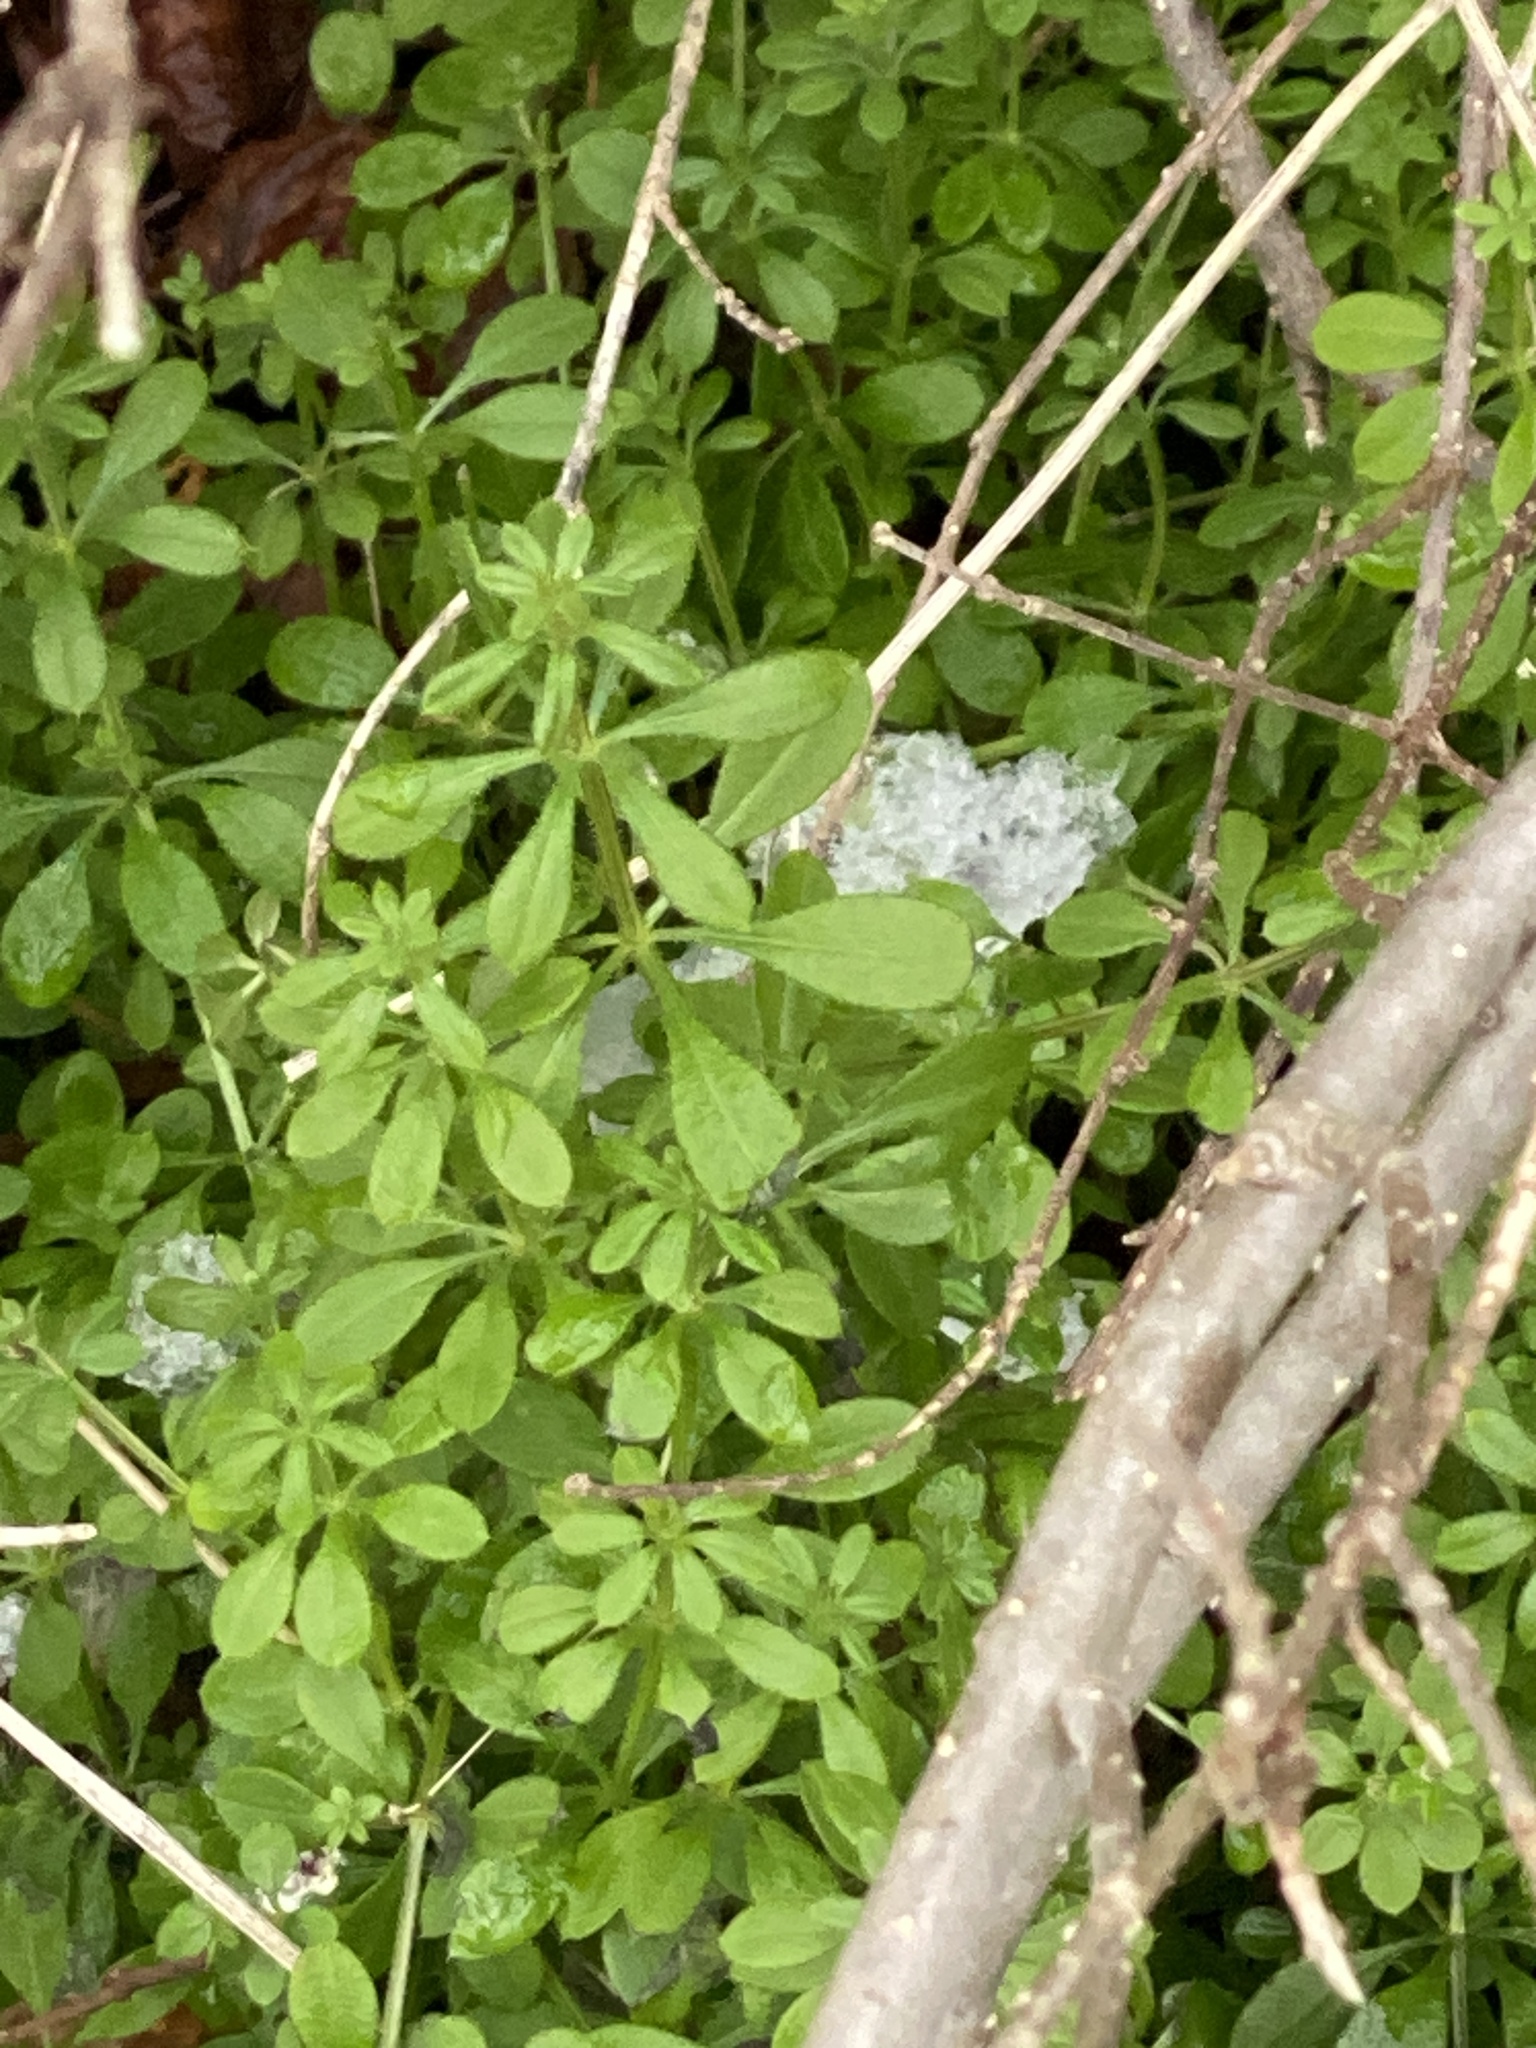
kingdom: Plantae
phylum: Tracheophyta
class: Magnoliopsida
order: Gentianales
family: Rubiaceae
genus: Galium
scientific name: Galium aparine
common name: Cleavers
